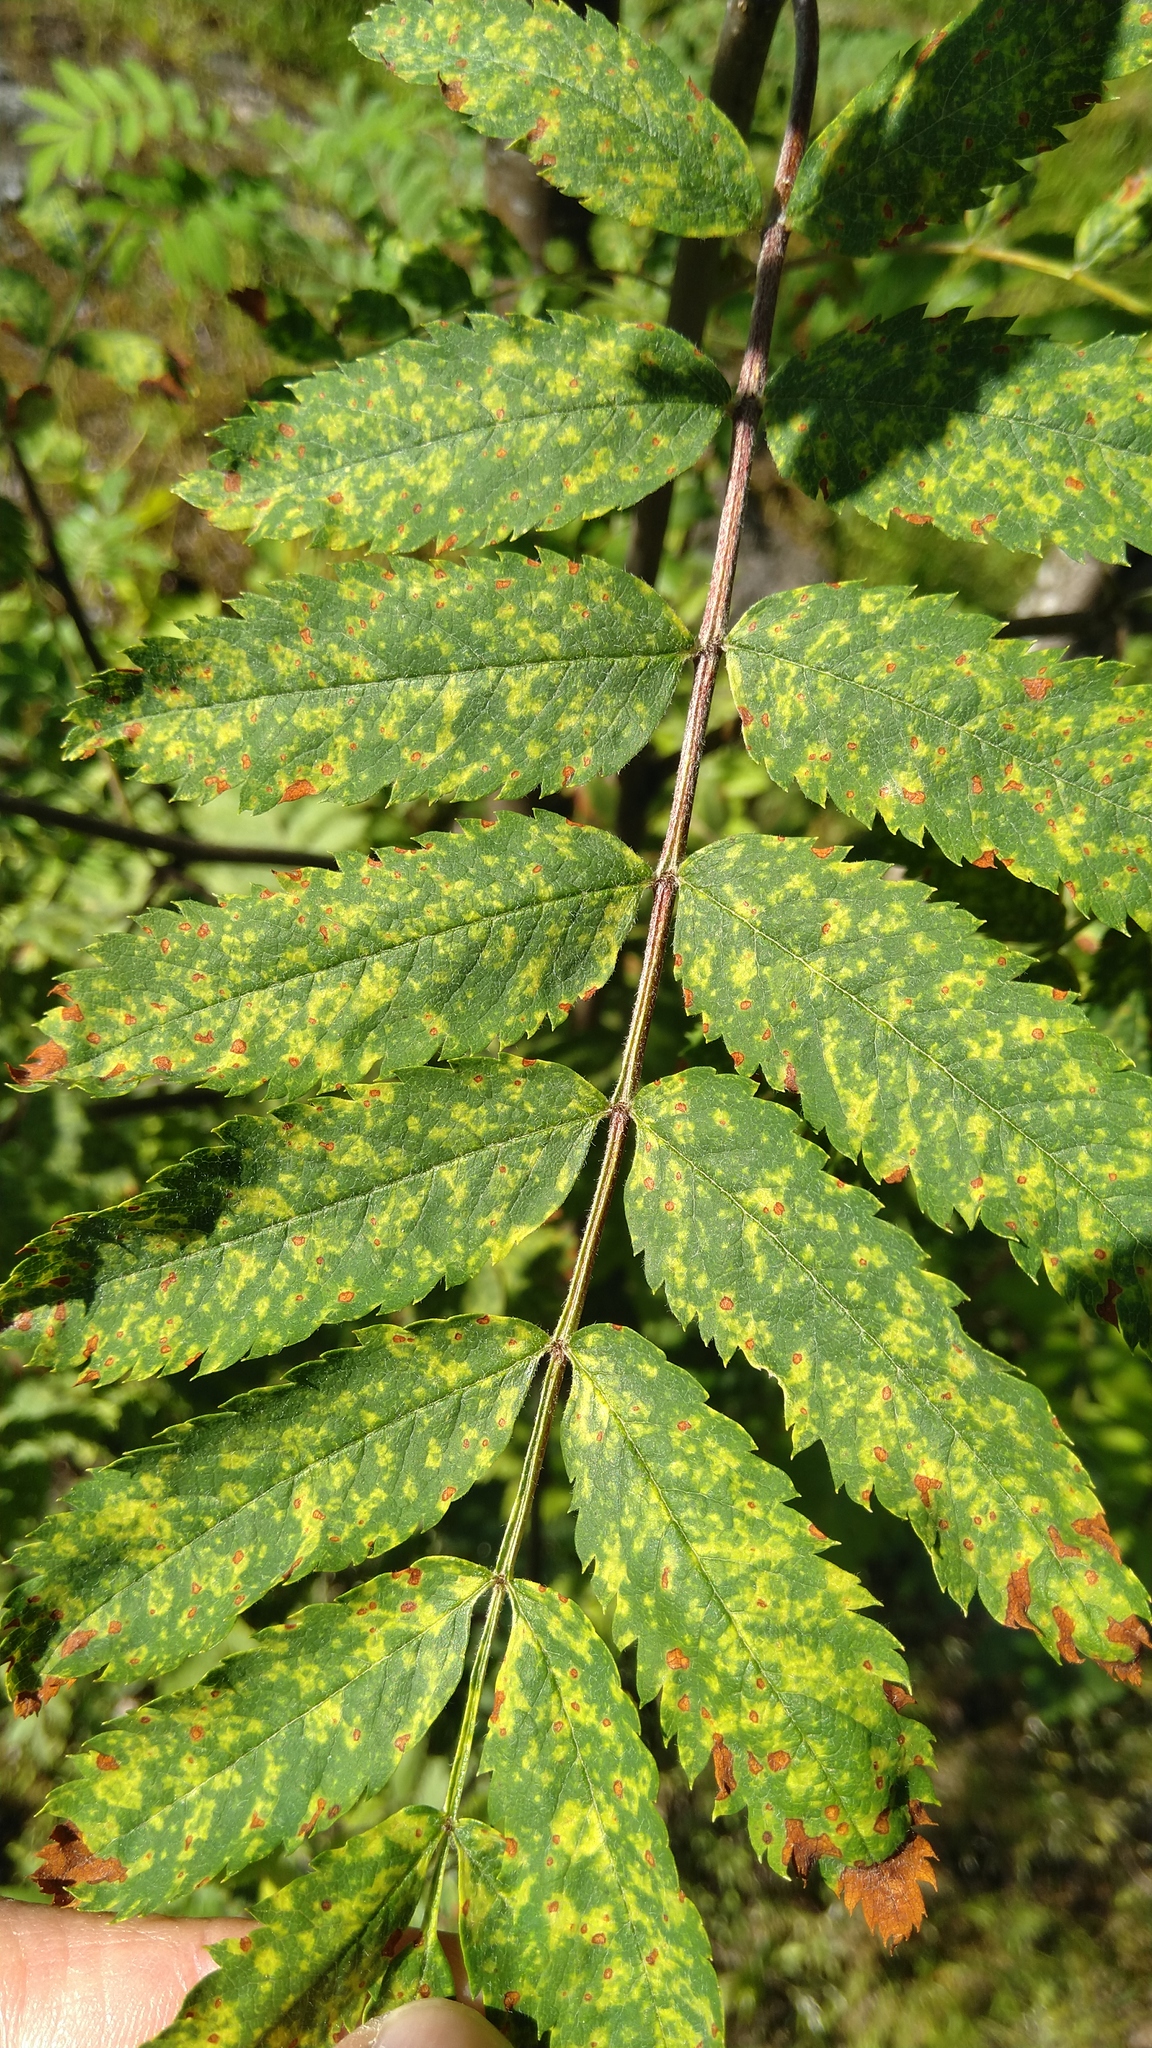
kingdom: Viruses
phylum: Negarnaviricota
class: Ellioviricetes
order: Bunyavirales
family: Fimoviridae
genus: Emaravirus
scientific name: Emaravirus sorbi
